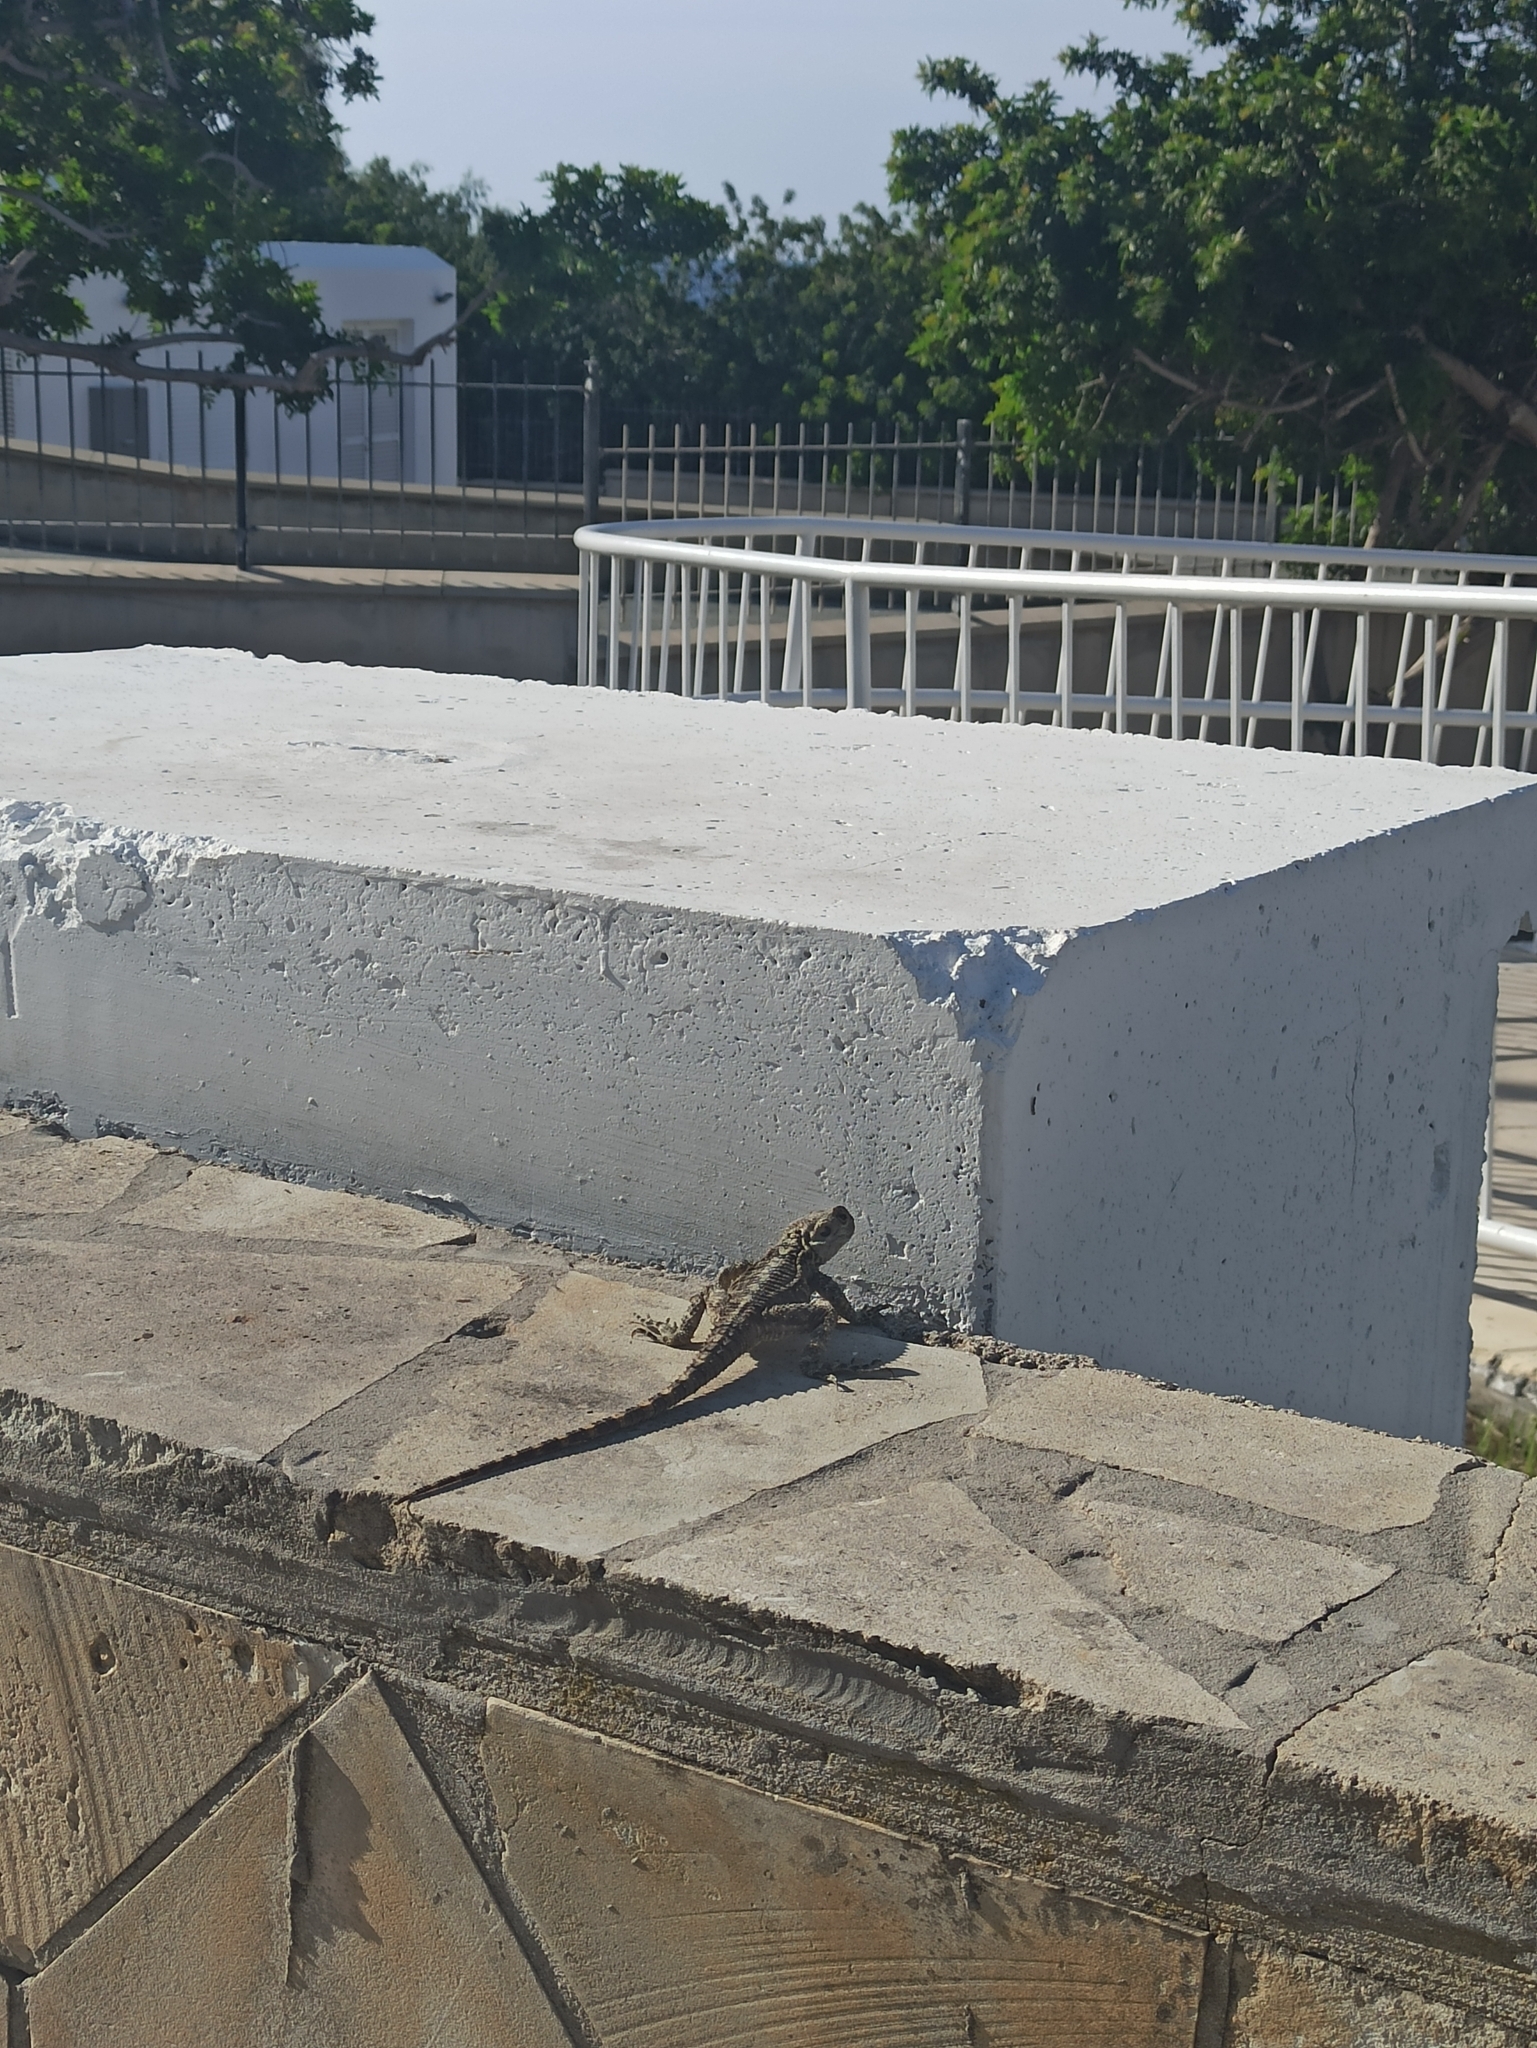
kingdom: Animalia
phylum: Chordata
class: Squamata
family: Agamidae
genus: Laudakia
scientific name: Laudakia
